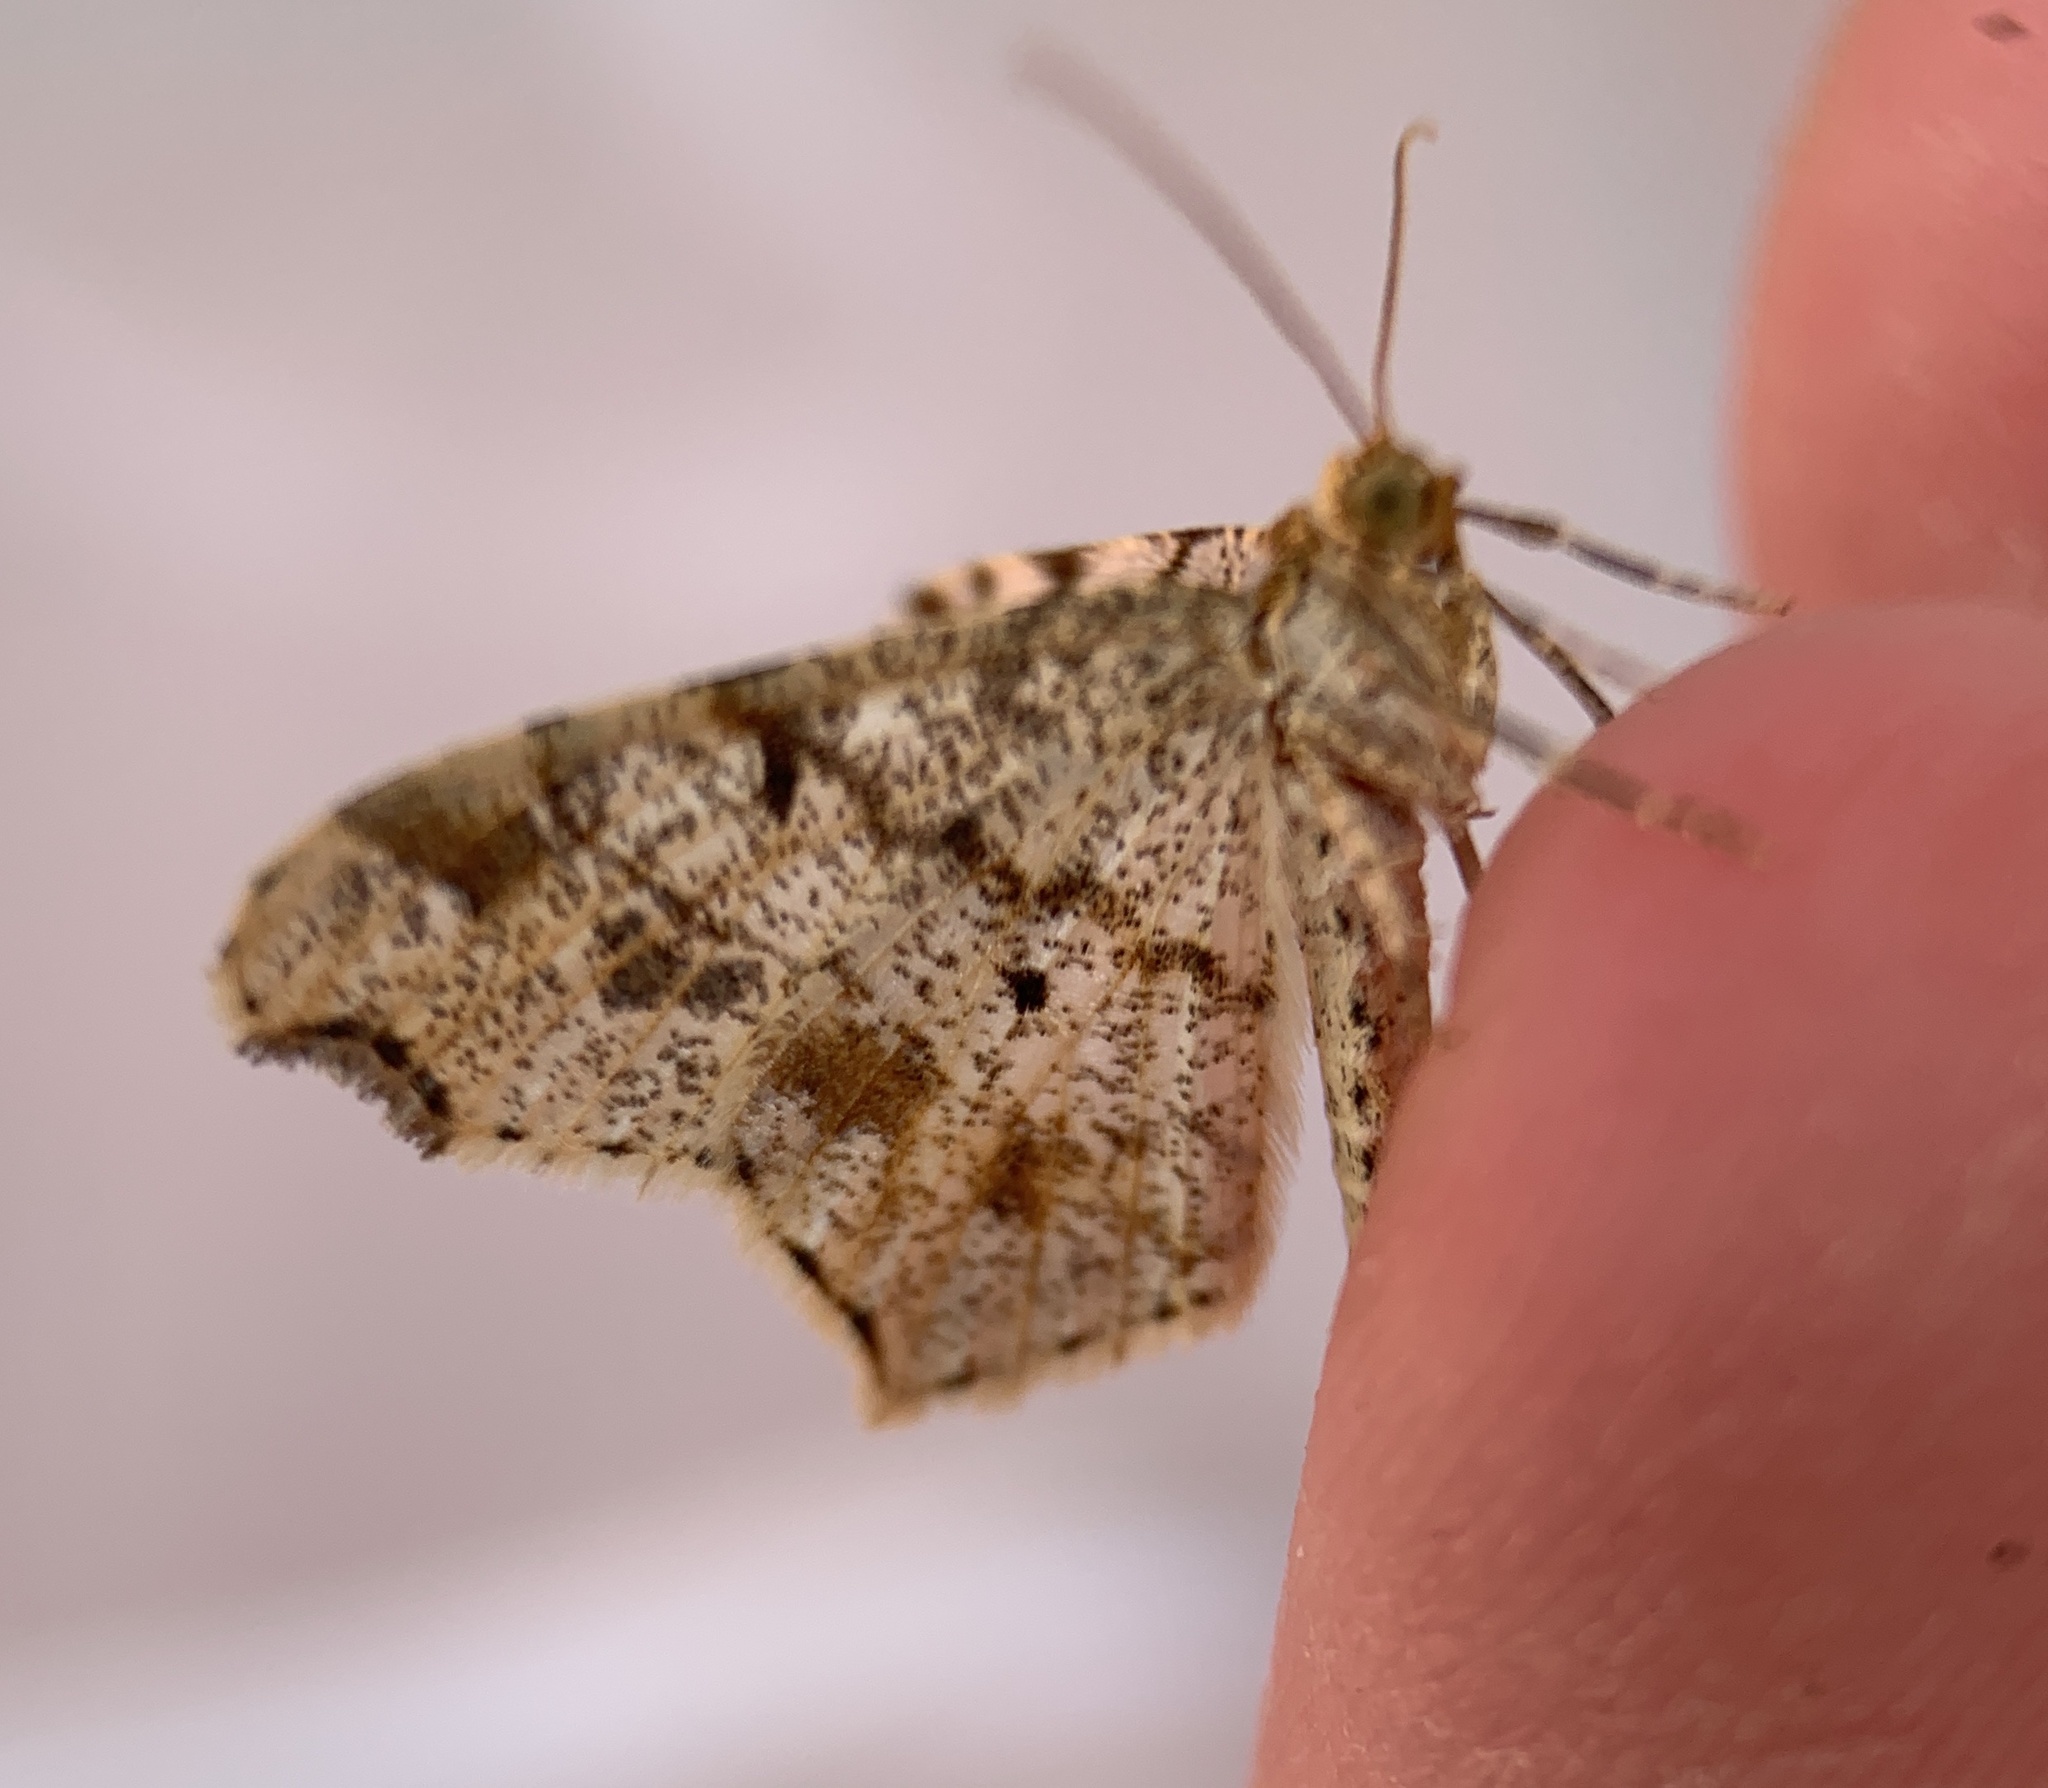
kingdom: Animalia
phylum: Arthropoda
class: Insecta
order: Lepidoptera
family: Geometridae
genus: Macaria
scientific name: Macaria ulsterata
